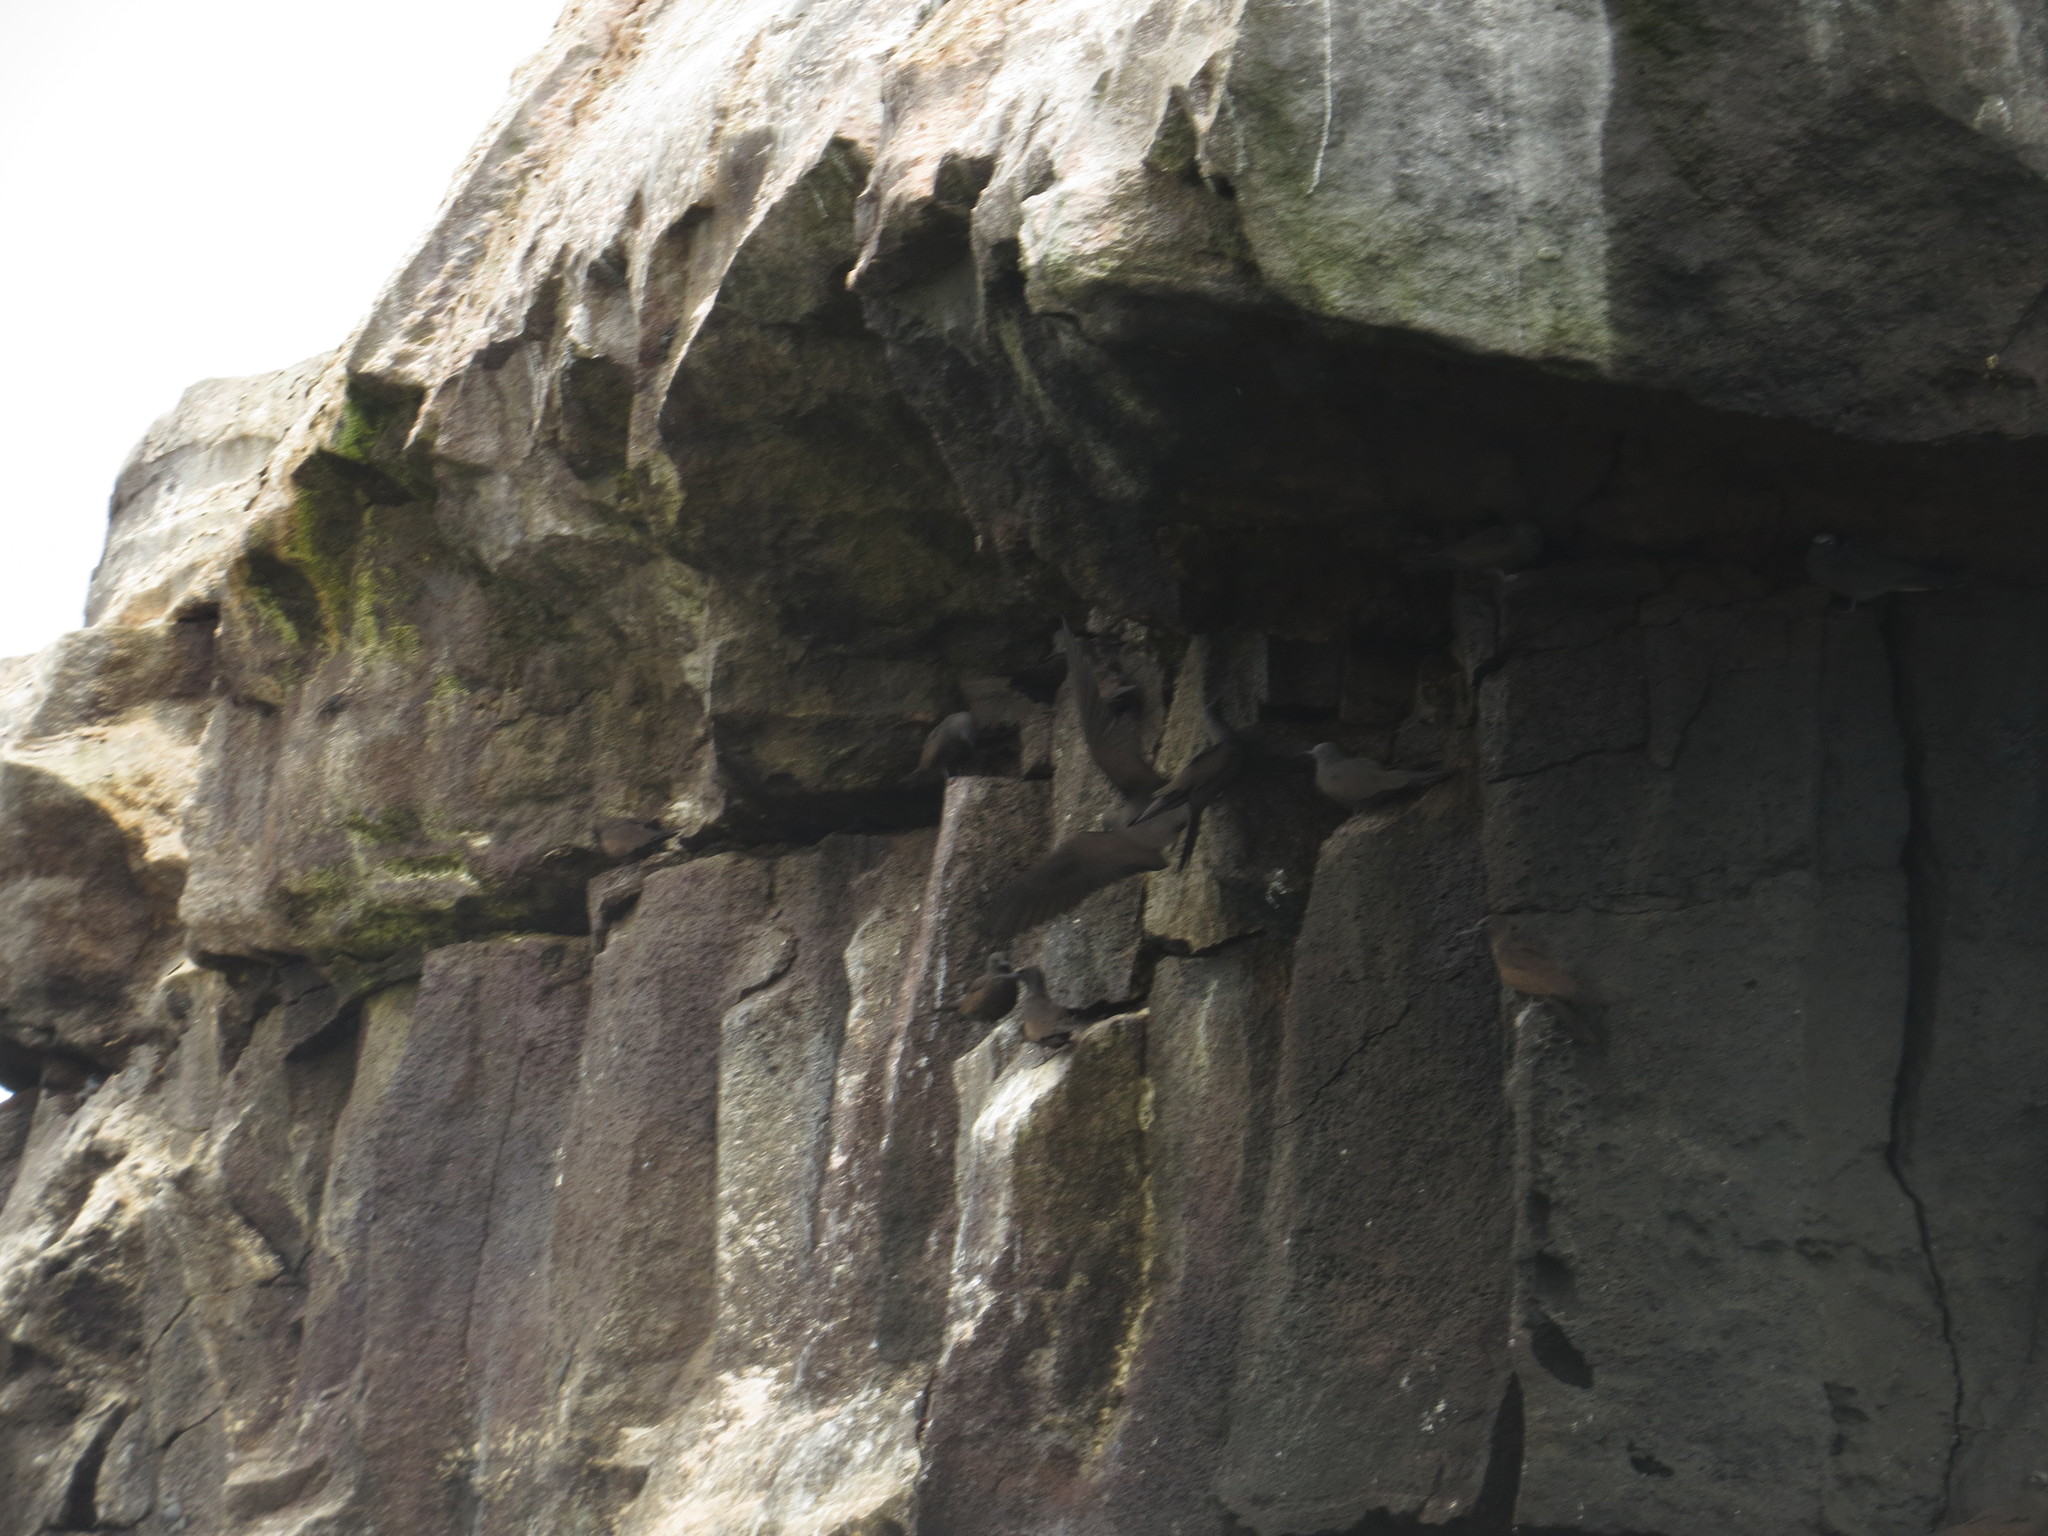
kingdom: Animalia
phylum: Chordata
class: Aves
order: Charadriiformes
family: Laridae
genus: Leucophaeus
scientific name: Leucophaeus fuliginosus
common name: Lava gull
